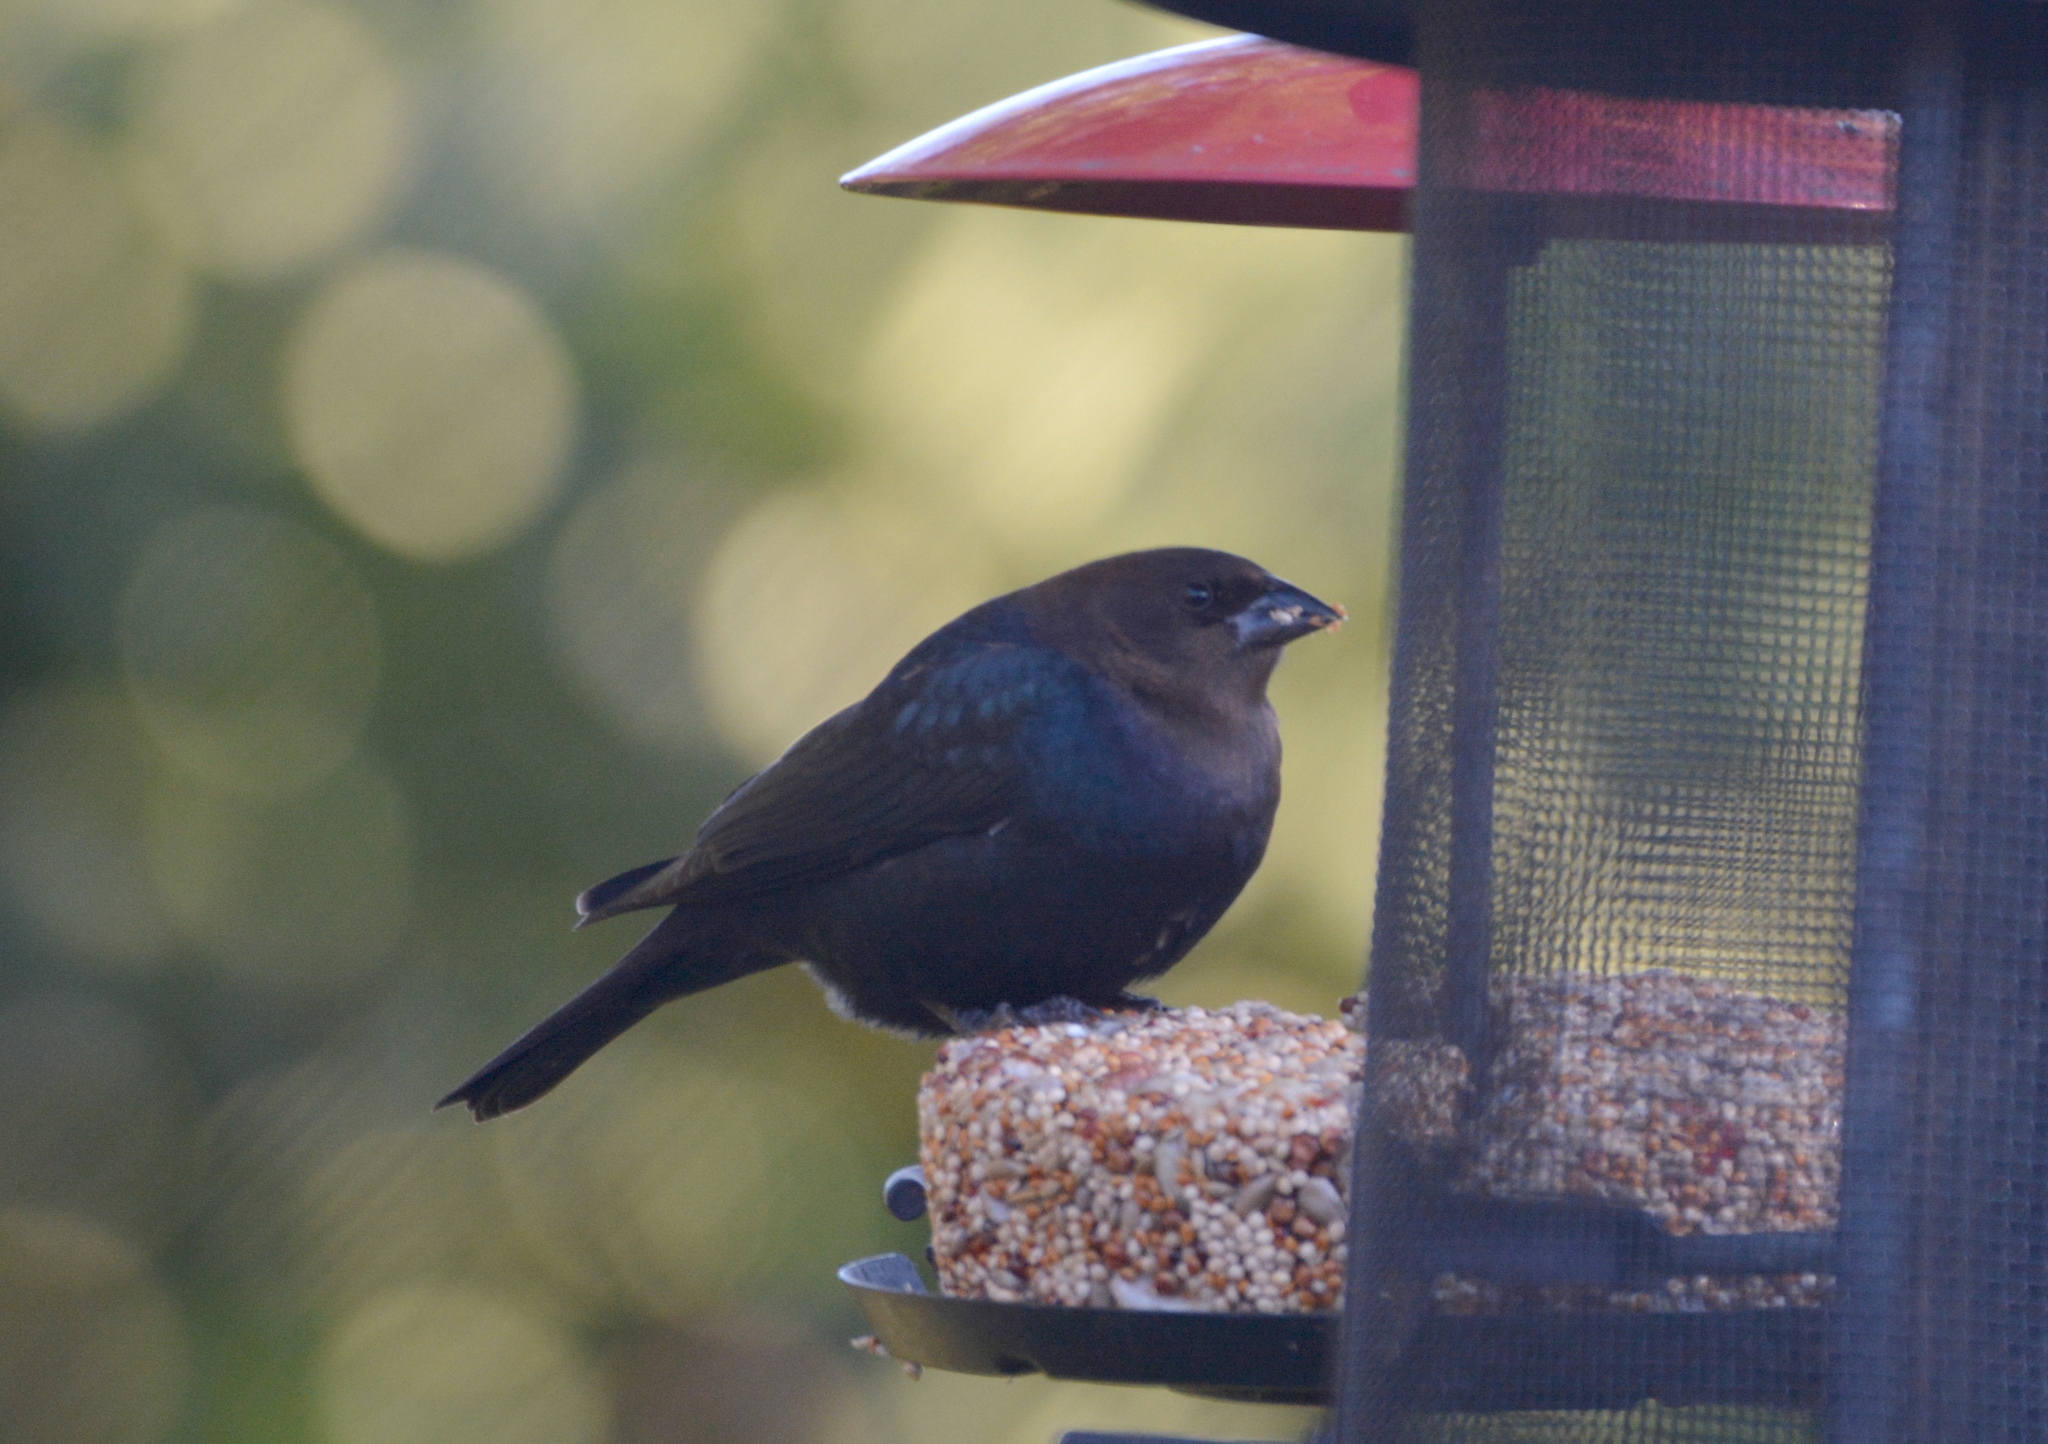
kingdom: Animalia
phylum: Chordata
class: Aves
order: Passeriformes
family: Icteridae
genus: Molothrus
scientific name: Molothrus ater
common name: Brown-headed cowbird
